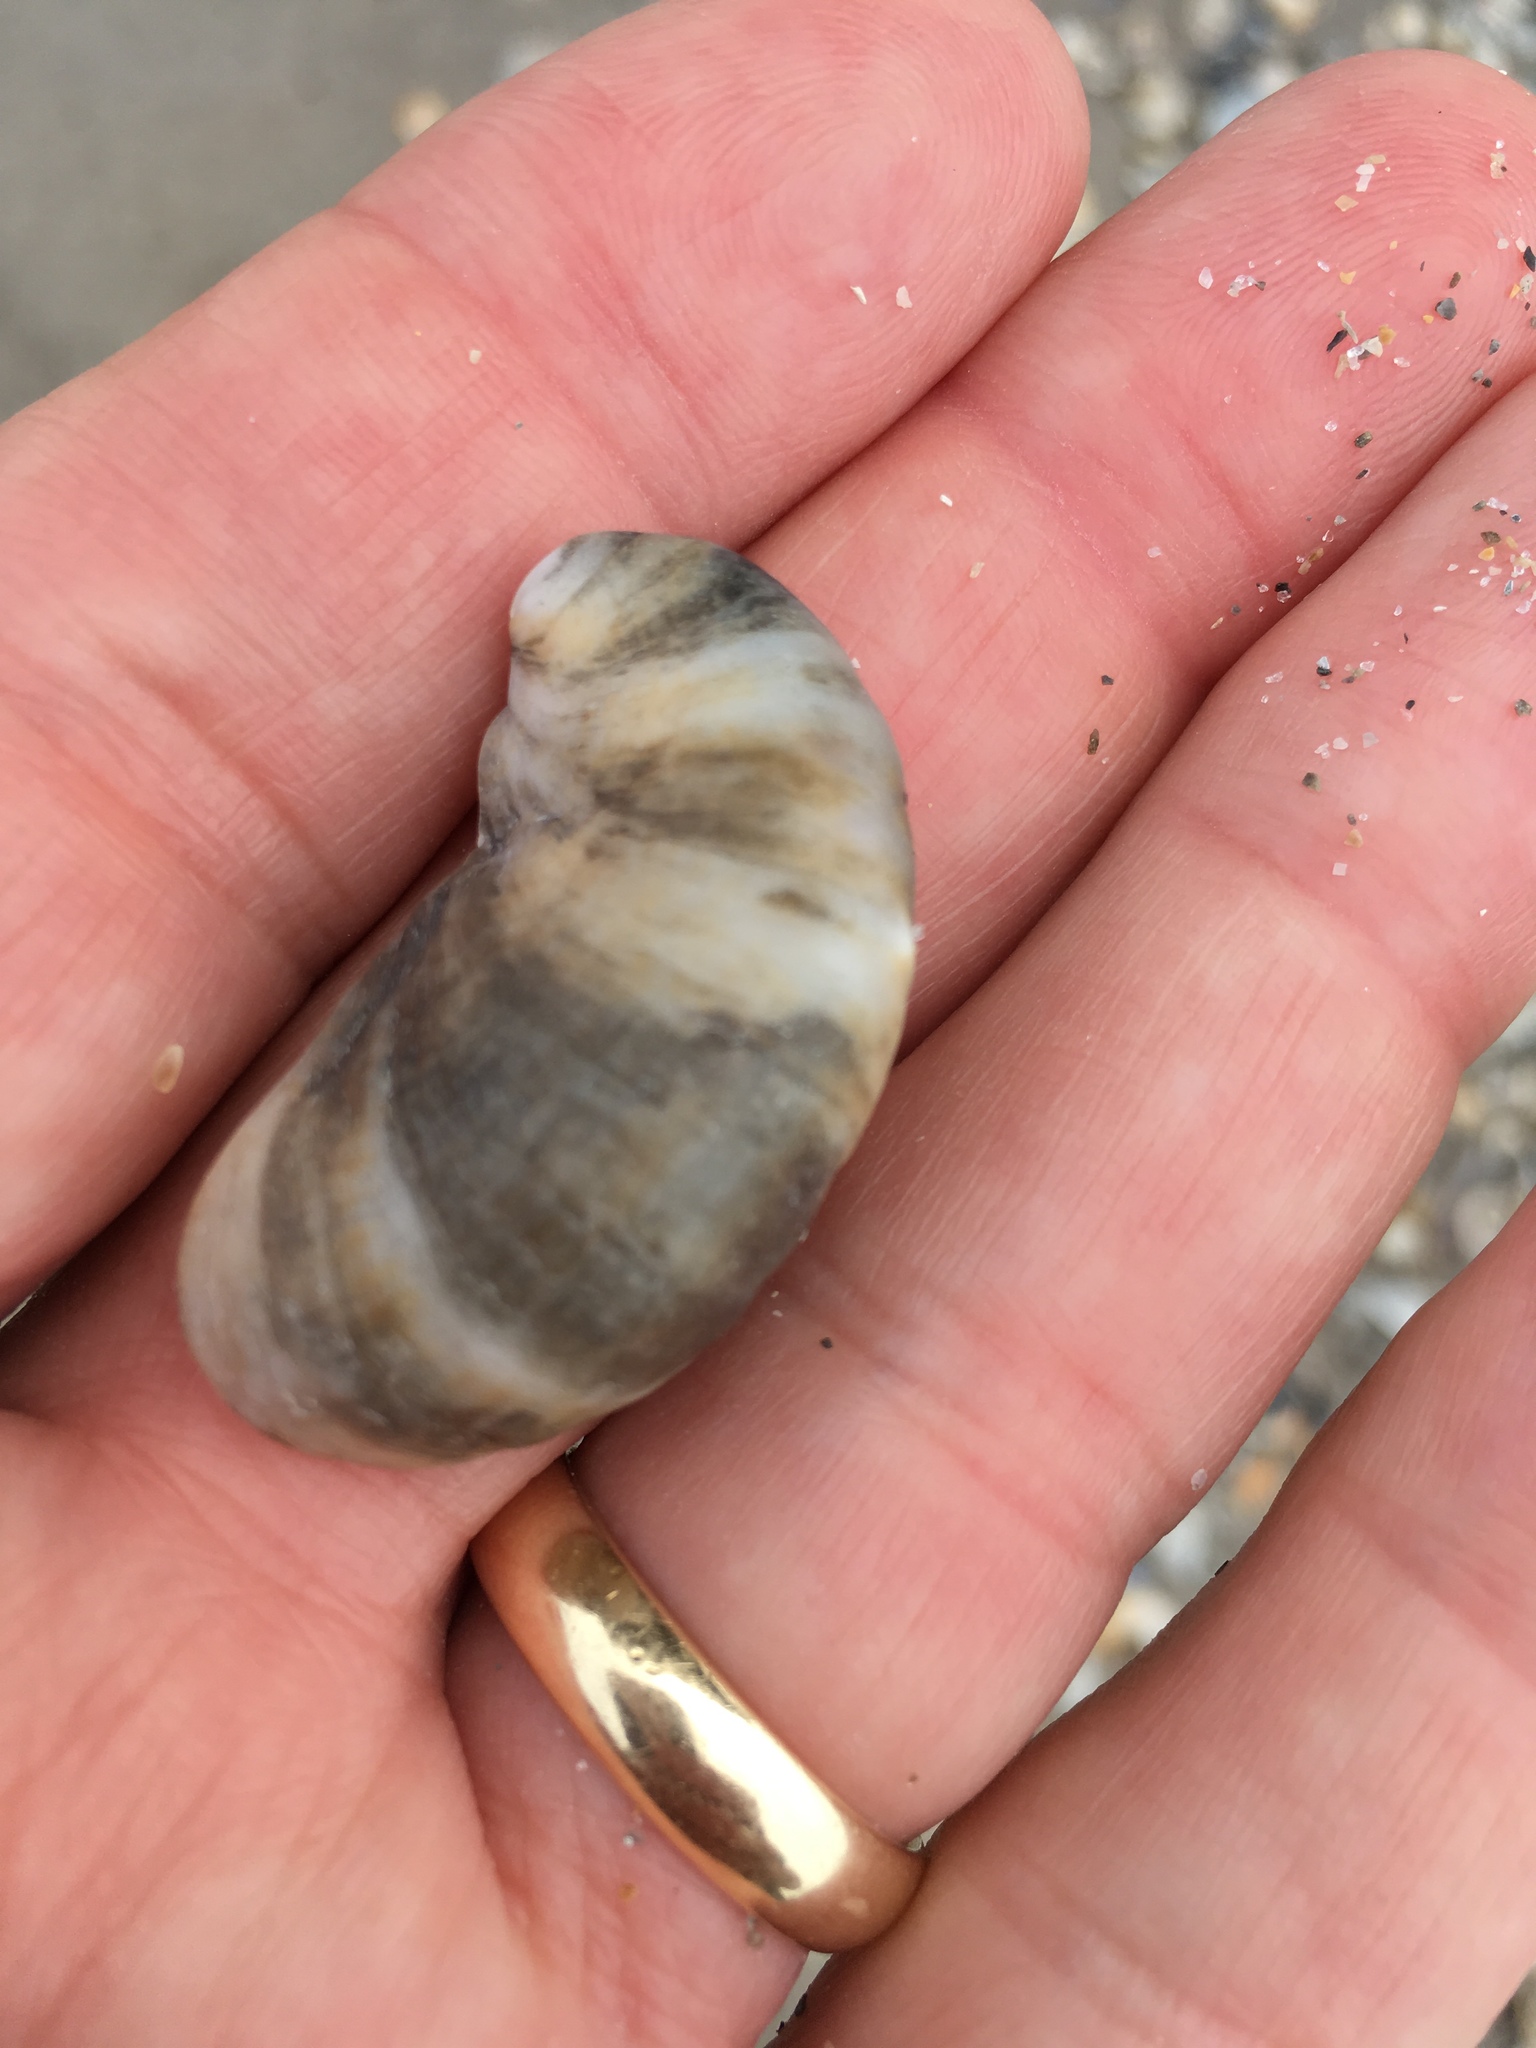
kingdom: Animalia
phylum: Mollusca
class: Gastropoda
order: Littorinimorpha
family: Calyptraeidae
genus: Crepidula
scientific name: Crepidula fornicata
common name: Slipper limpet
